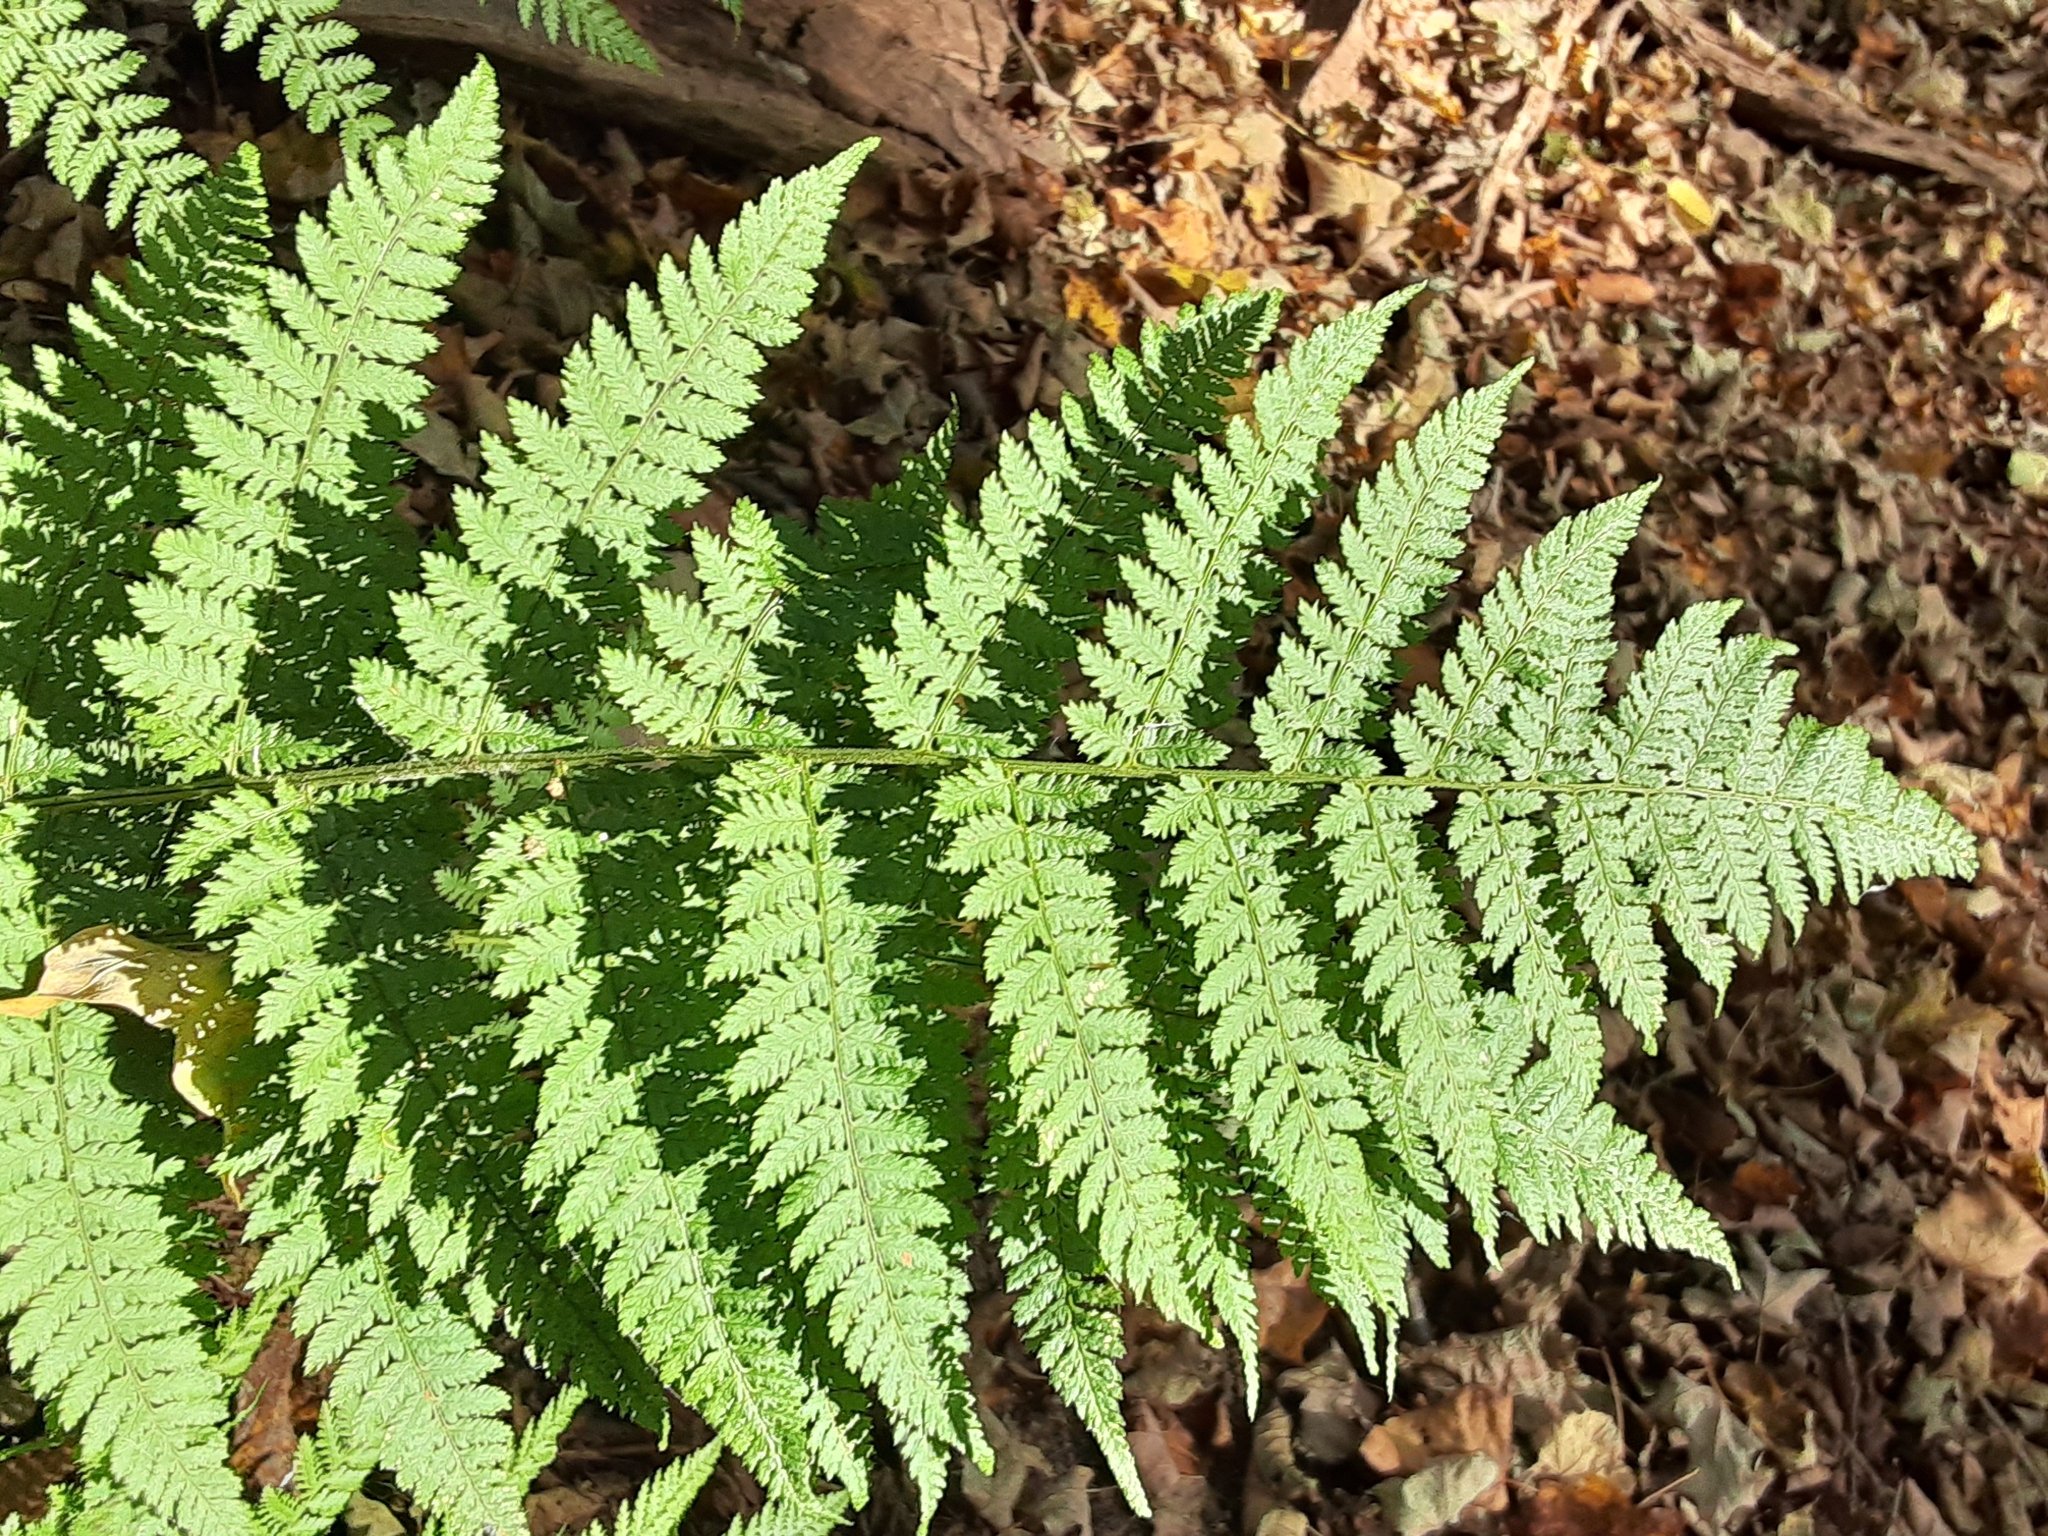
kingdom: Plantae
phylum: Tracheophyta
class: Polypodiopsida
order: Polypodiales
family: Dryopteridaceae
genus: Dryopteris
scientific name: Dryopteris intermedia
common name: Evergreen wood fern
